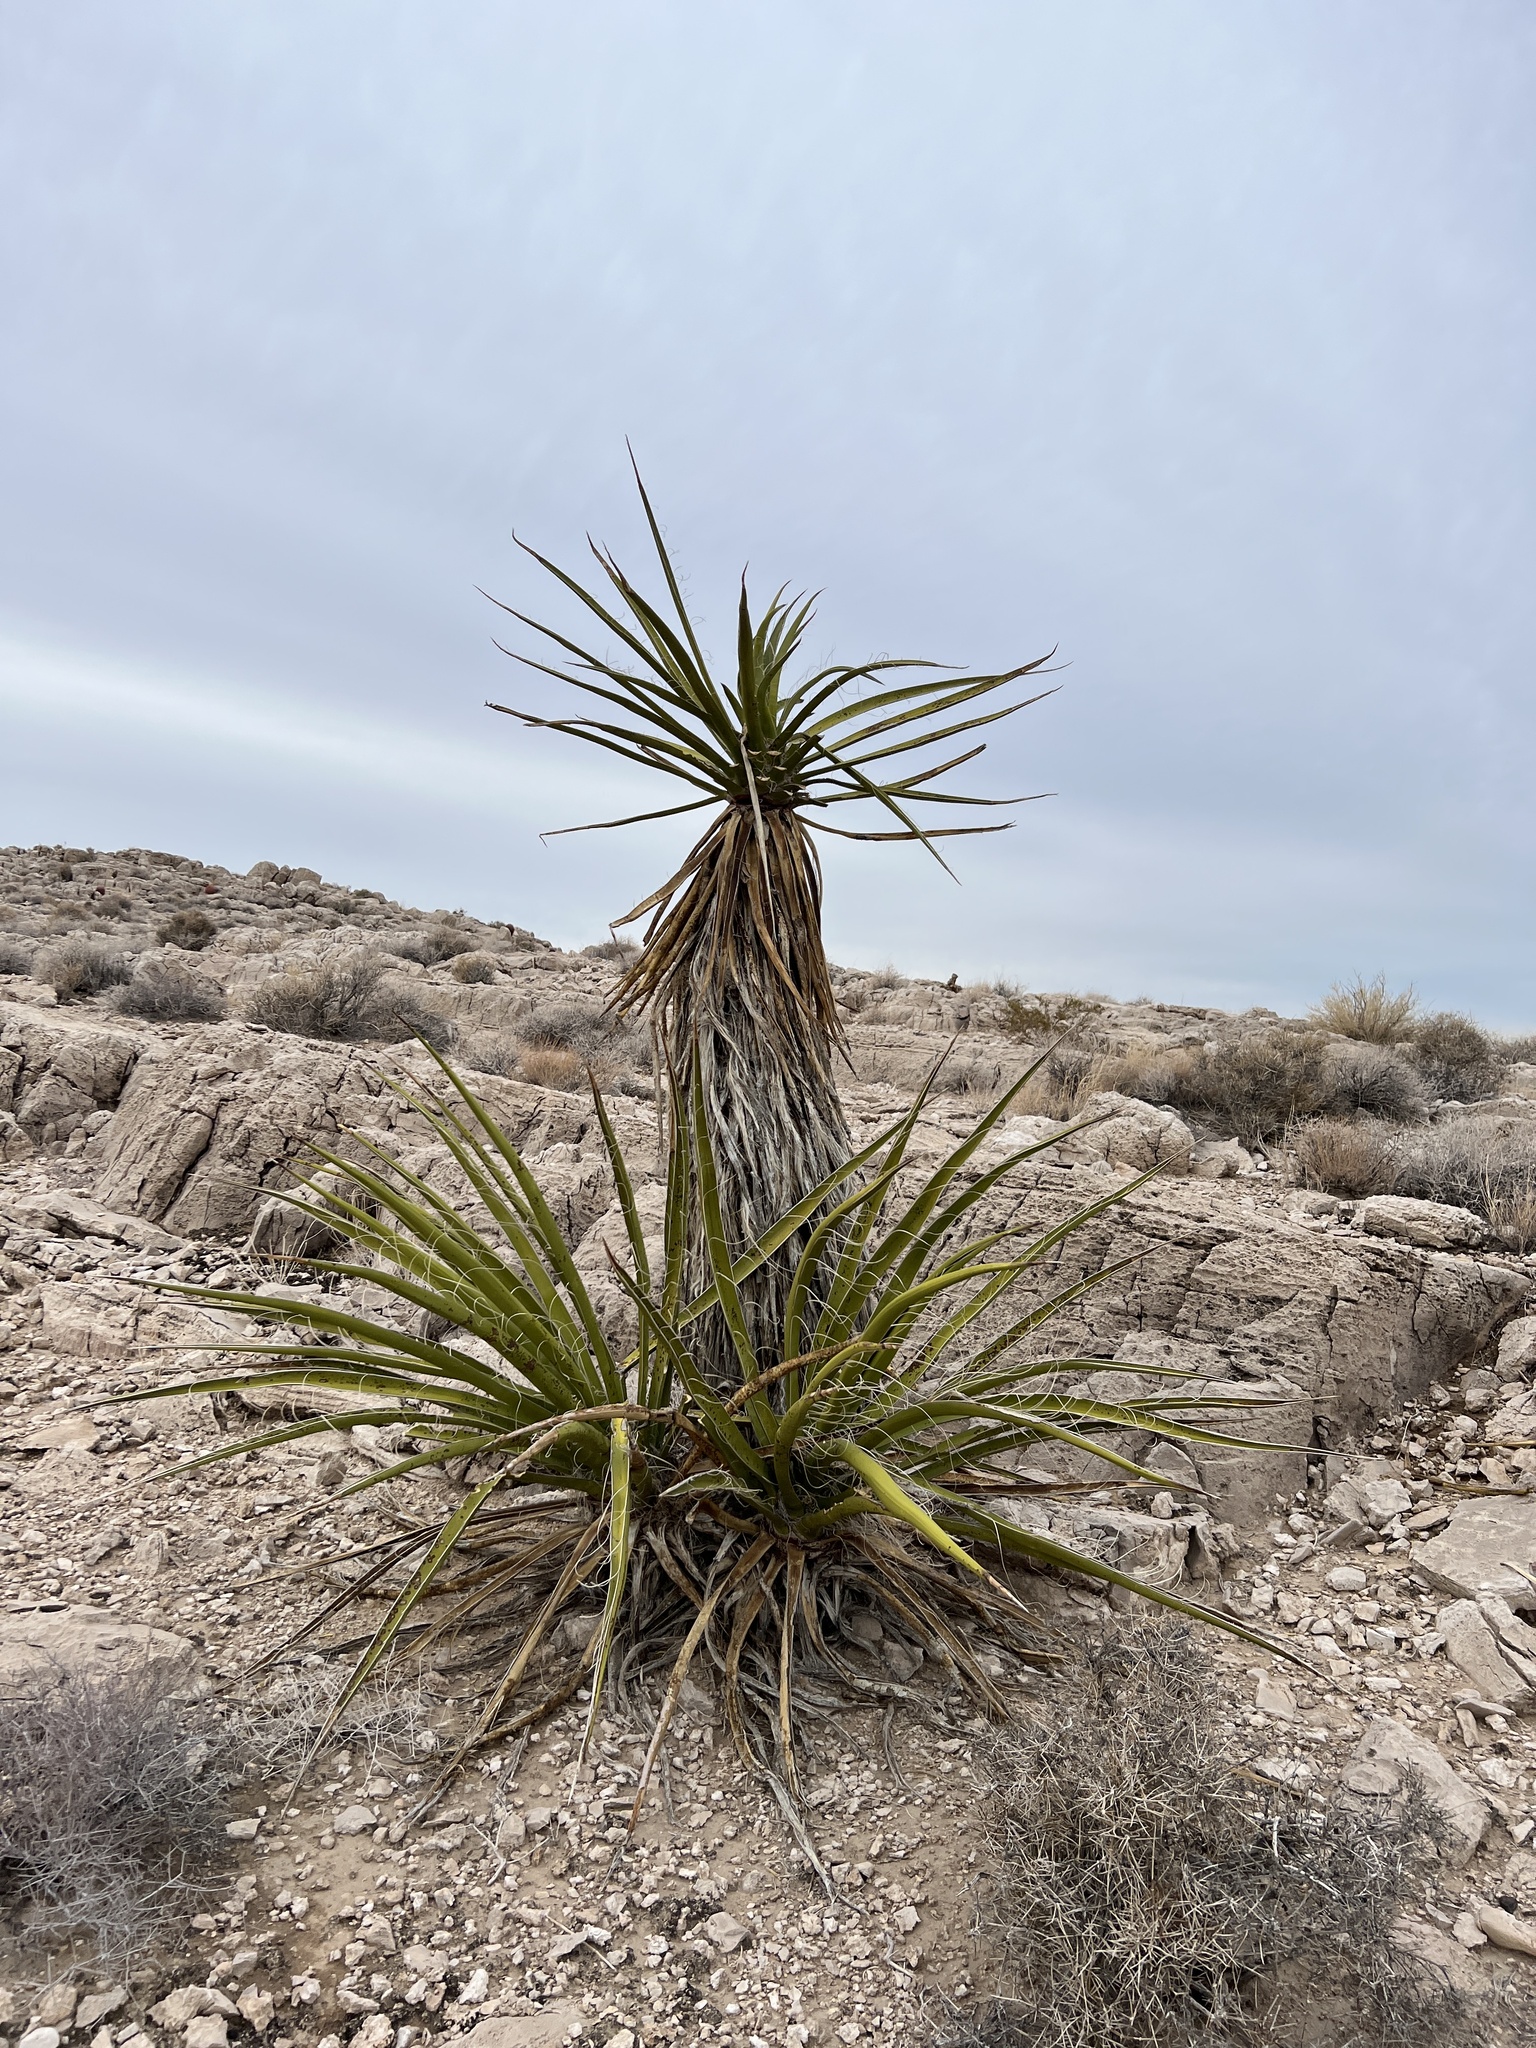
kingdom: Plantae
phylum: Tracheophyta
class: Liliopsida
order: Asparagales
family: Asparagaceae
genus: Yucca
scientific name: Yucca schidigera
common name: Mojave yucca
